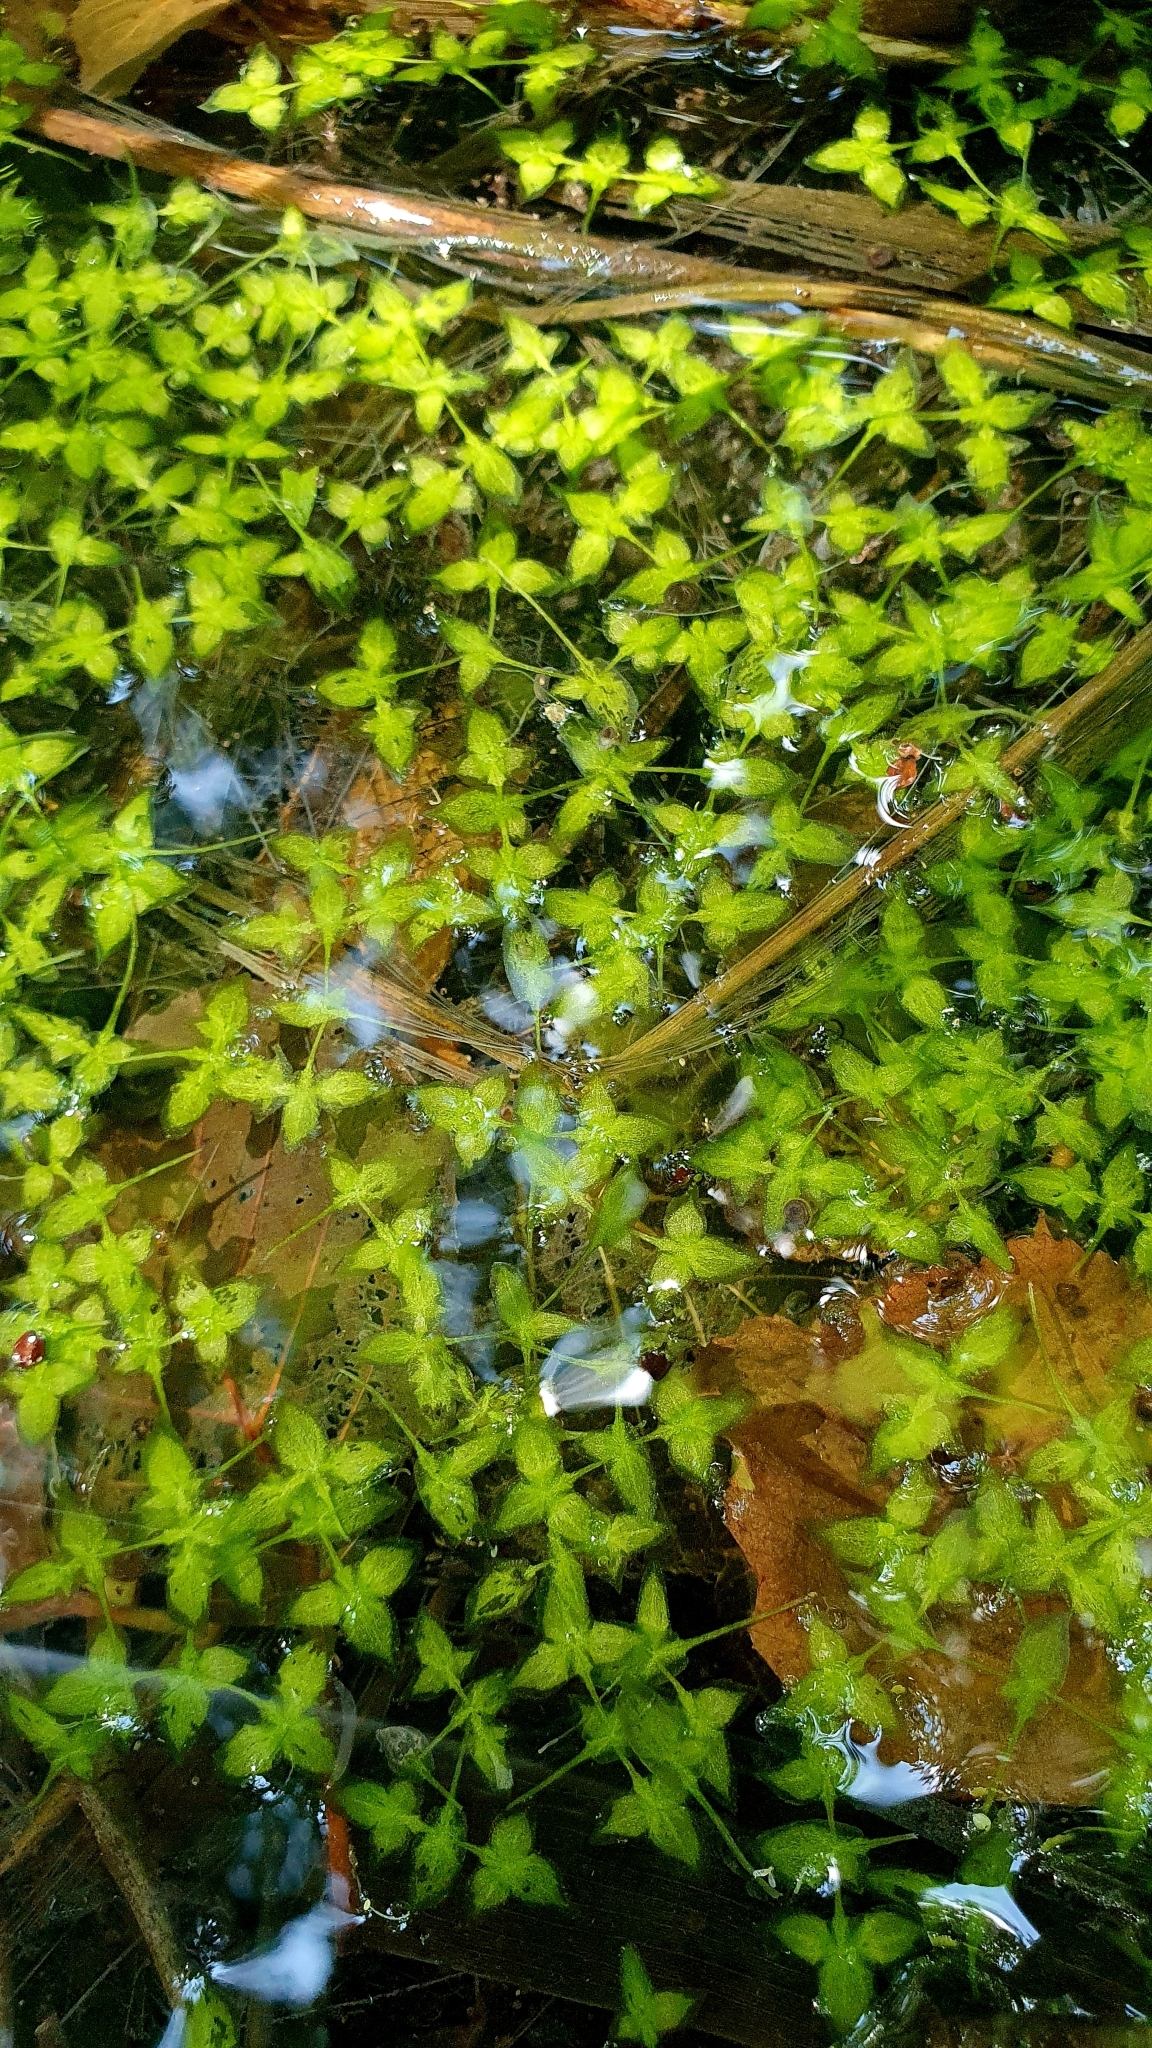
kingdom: Plantae
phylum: Tracheophyta
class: Liliopsida
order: Alismatales
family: Araceae
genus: Lemna
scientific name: Lemna trisulca
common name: Ivy-leaved duckweed
